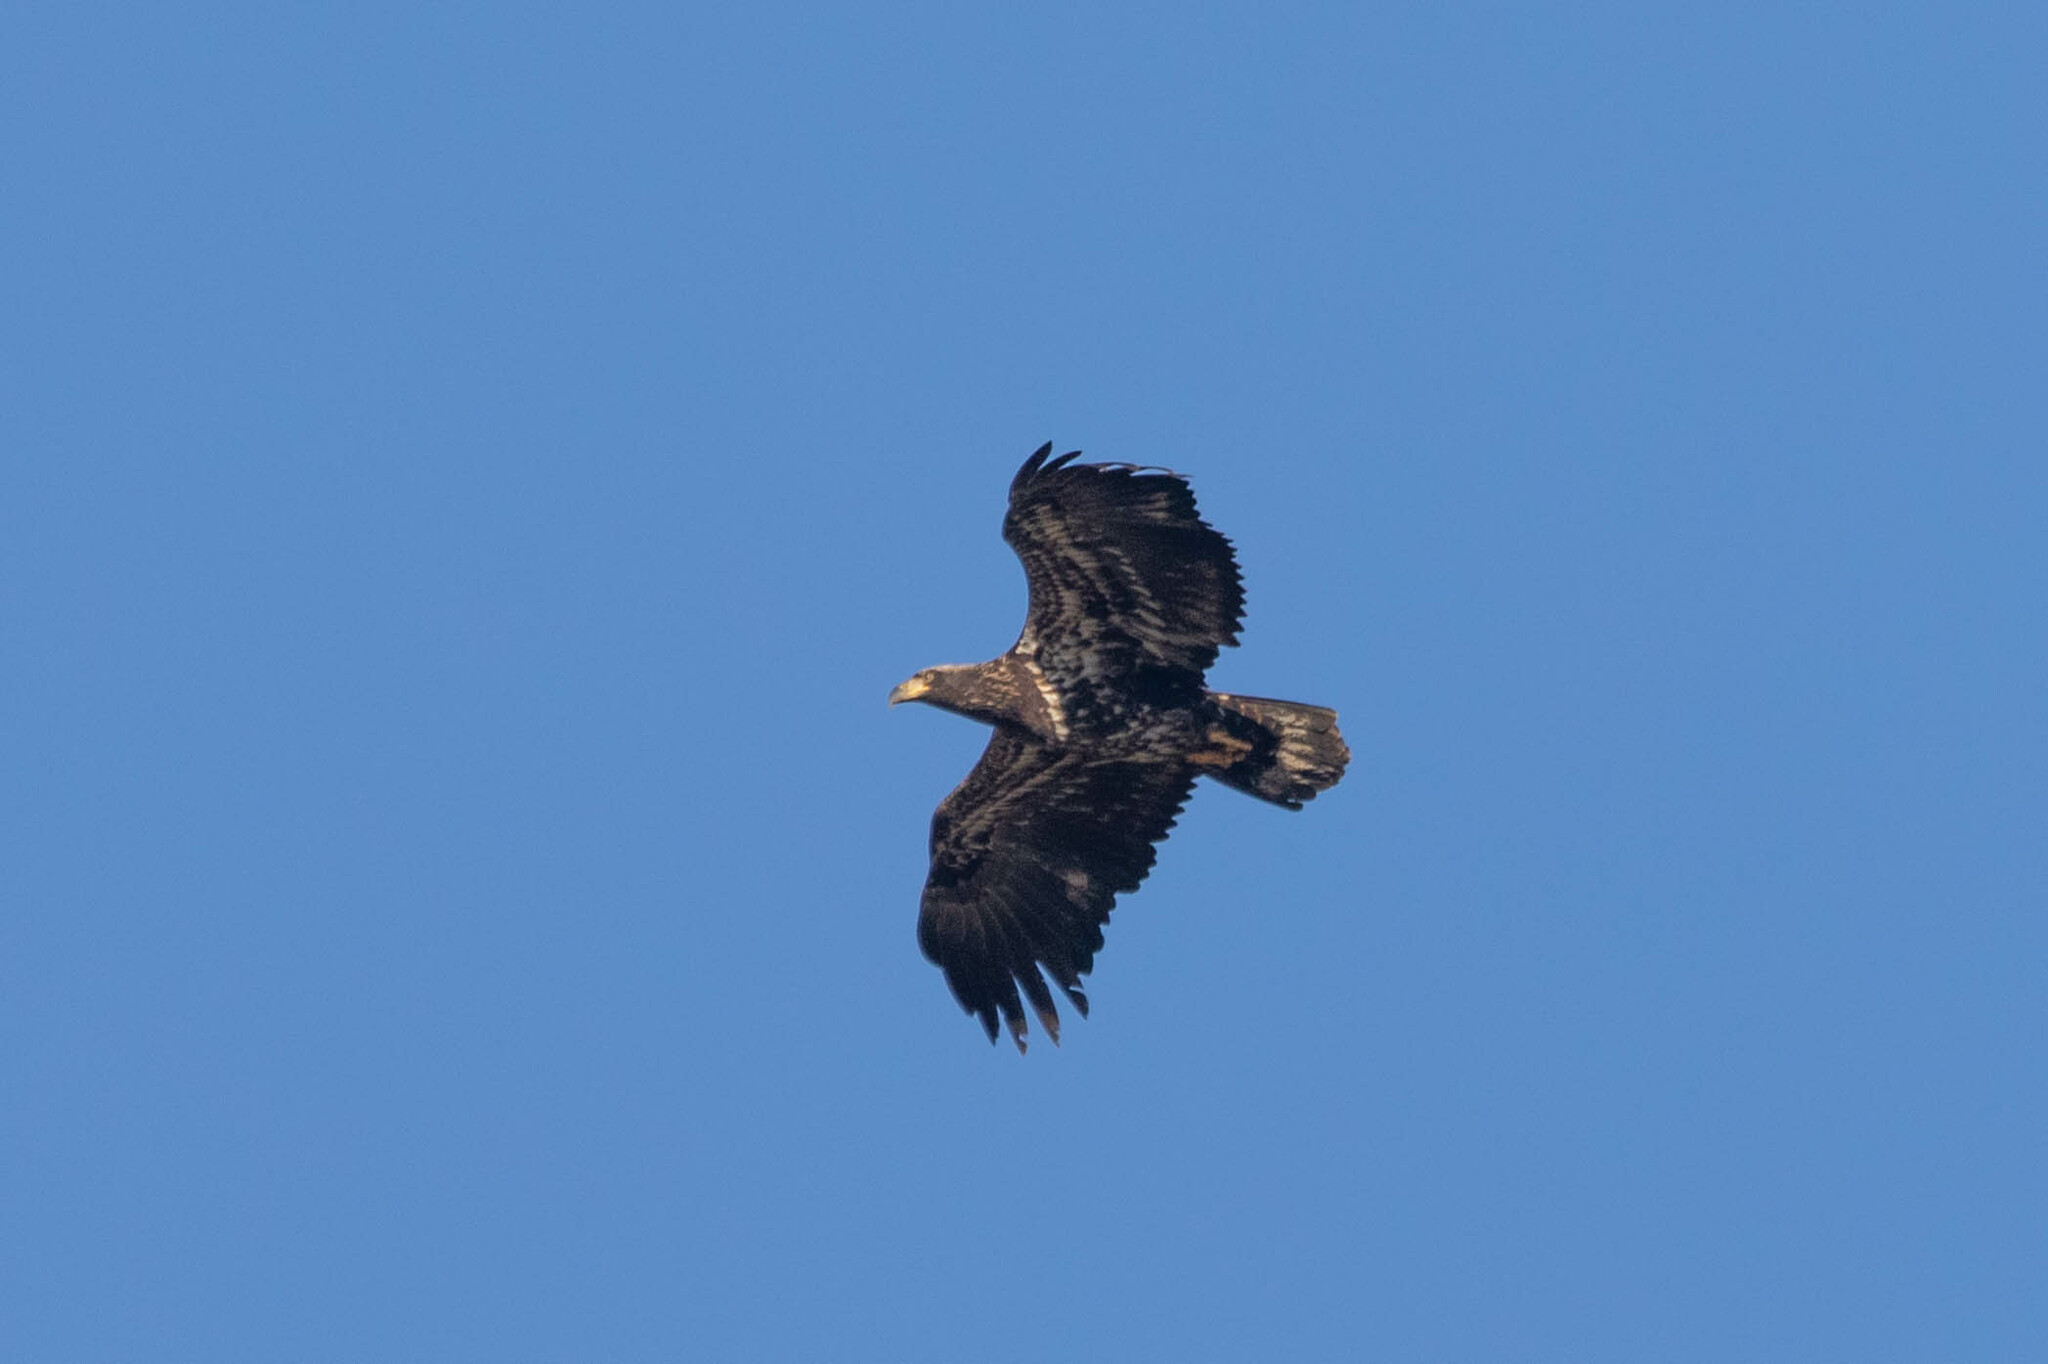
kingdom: Animalia
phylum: Chordata
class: Aves
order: Accipitriformes
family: Accipitridae
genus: Haliaeetus
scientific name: Haliaeetus leucocephalus
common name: Bald eagle
